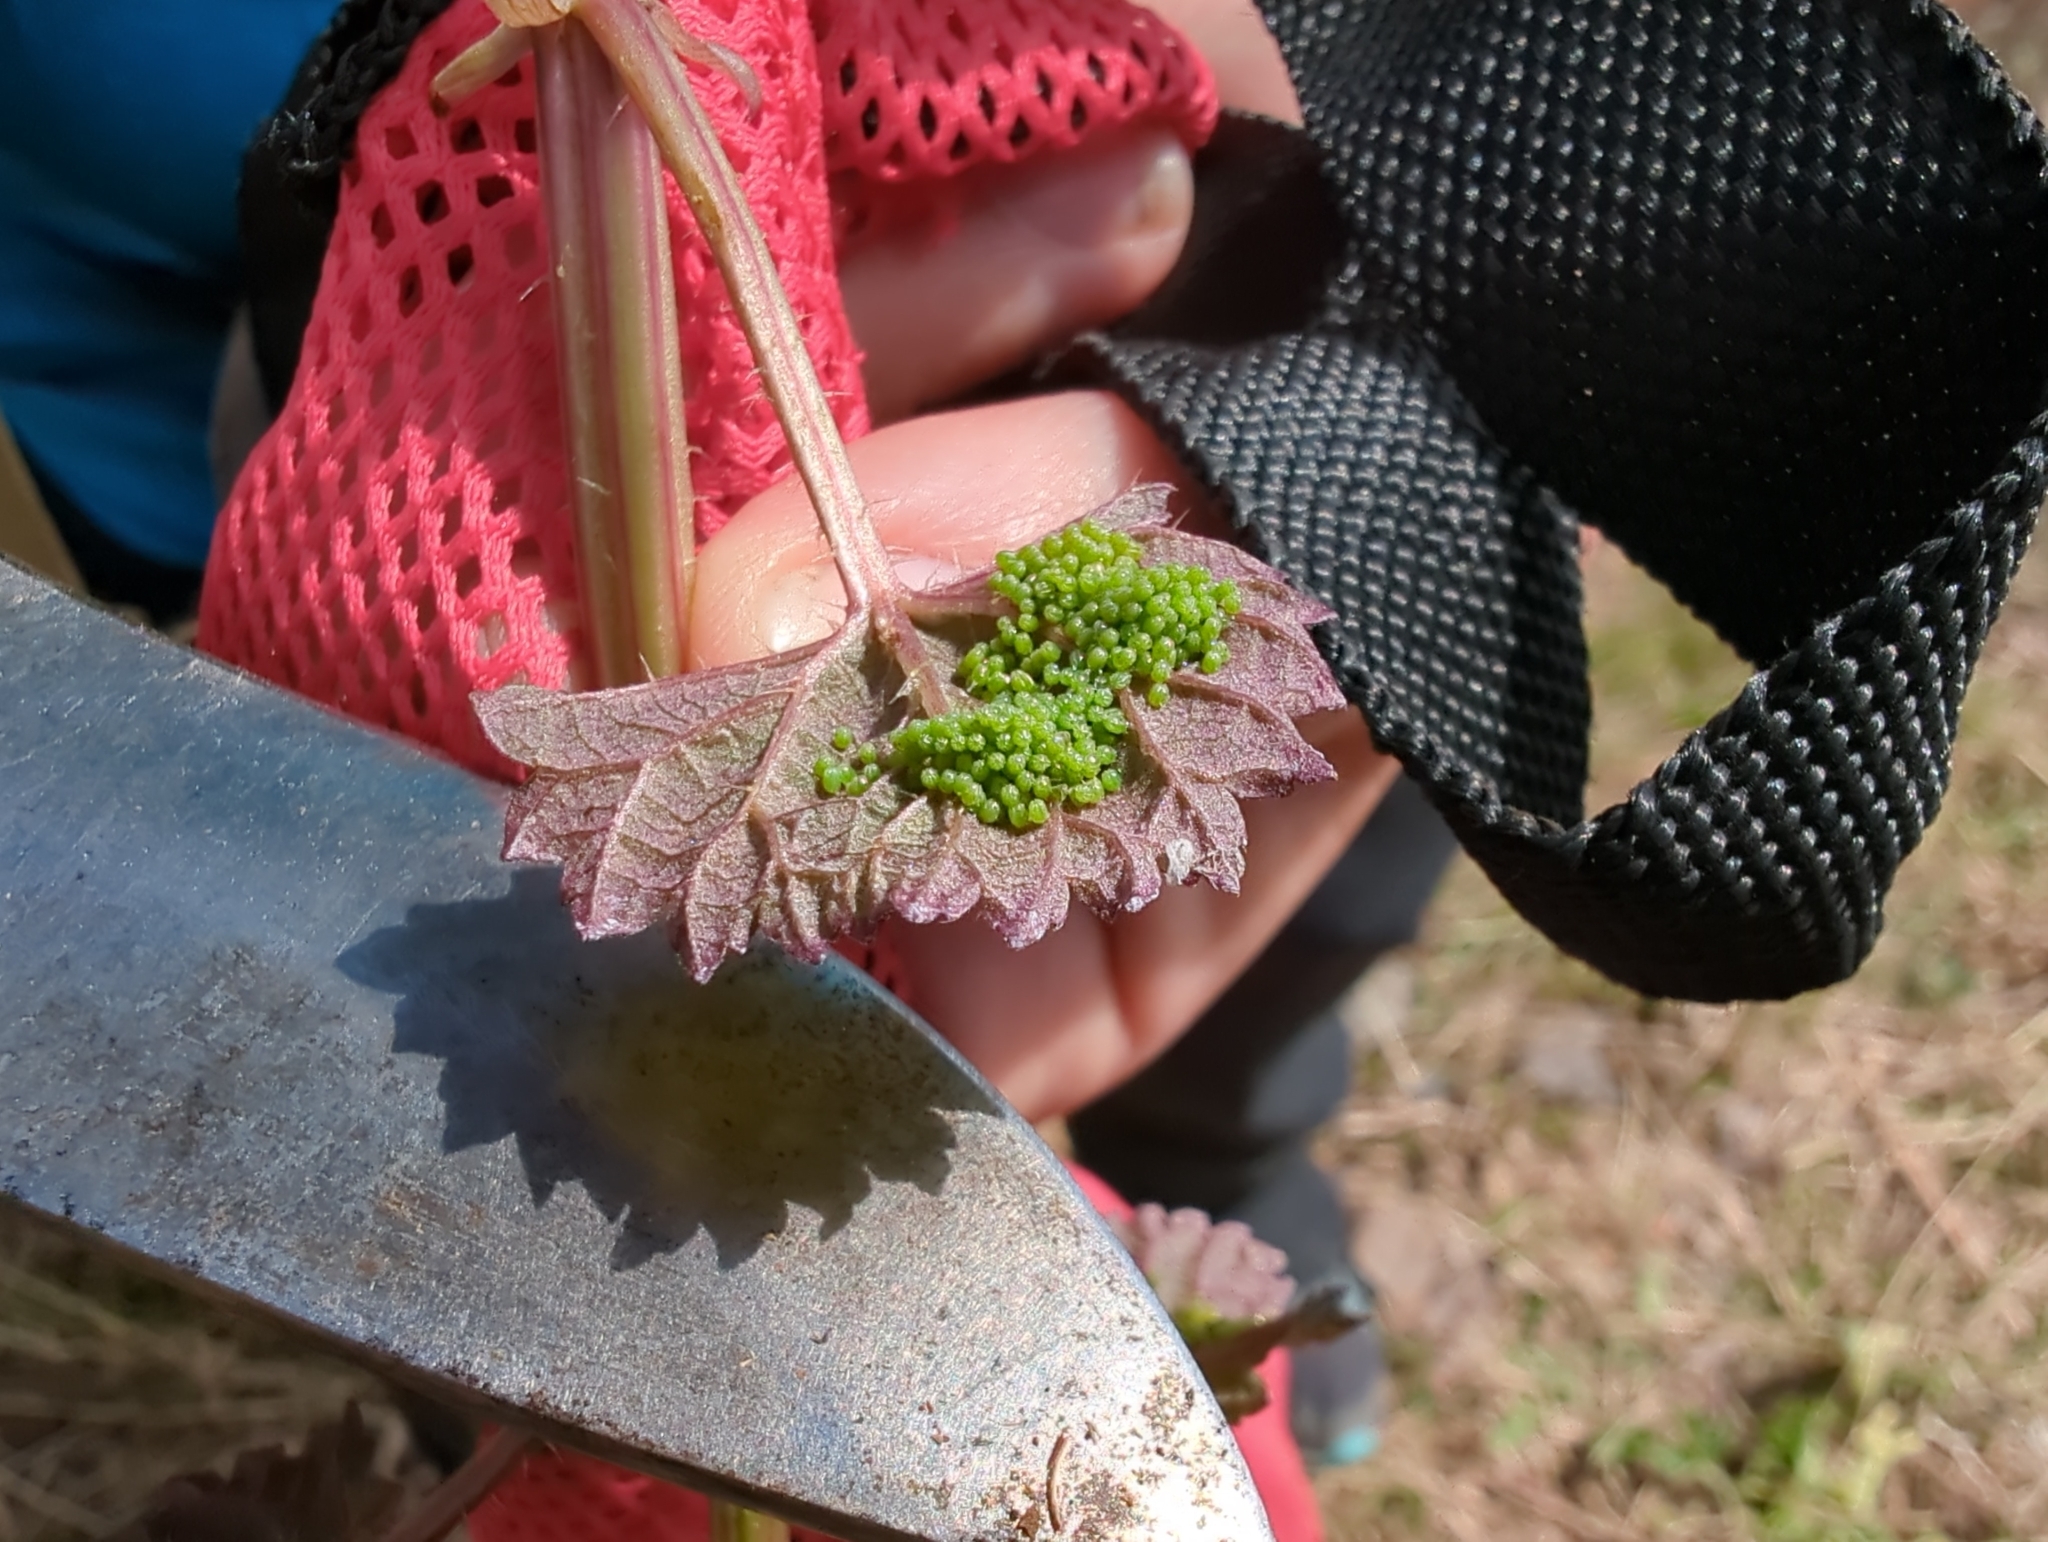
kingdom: Animalia
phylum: Arthropoda
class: Insecta
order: Lepidoptera
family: Nymphalidae
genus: Aglais
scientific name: Aglais milberti
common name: Milbert's tortoiseshell
